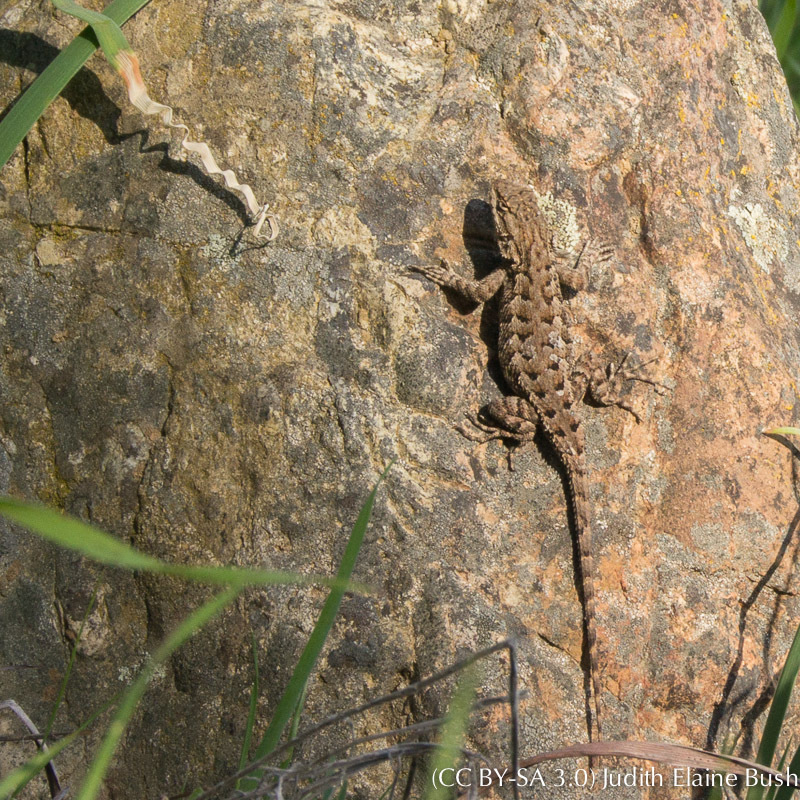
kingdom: Animalia
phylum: Chordata
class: Squamata
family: Phrynosomatidae
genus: Sceloporus
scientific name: Sceloporus occidentalis
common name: Western fence lizard
